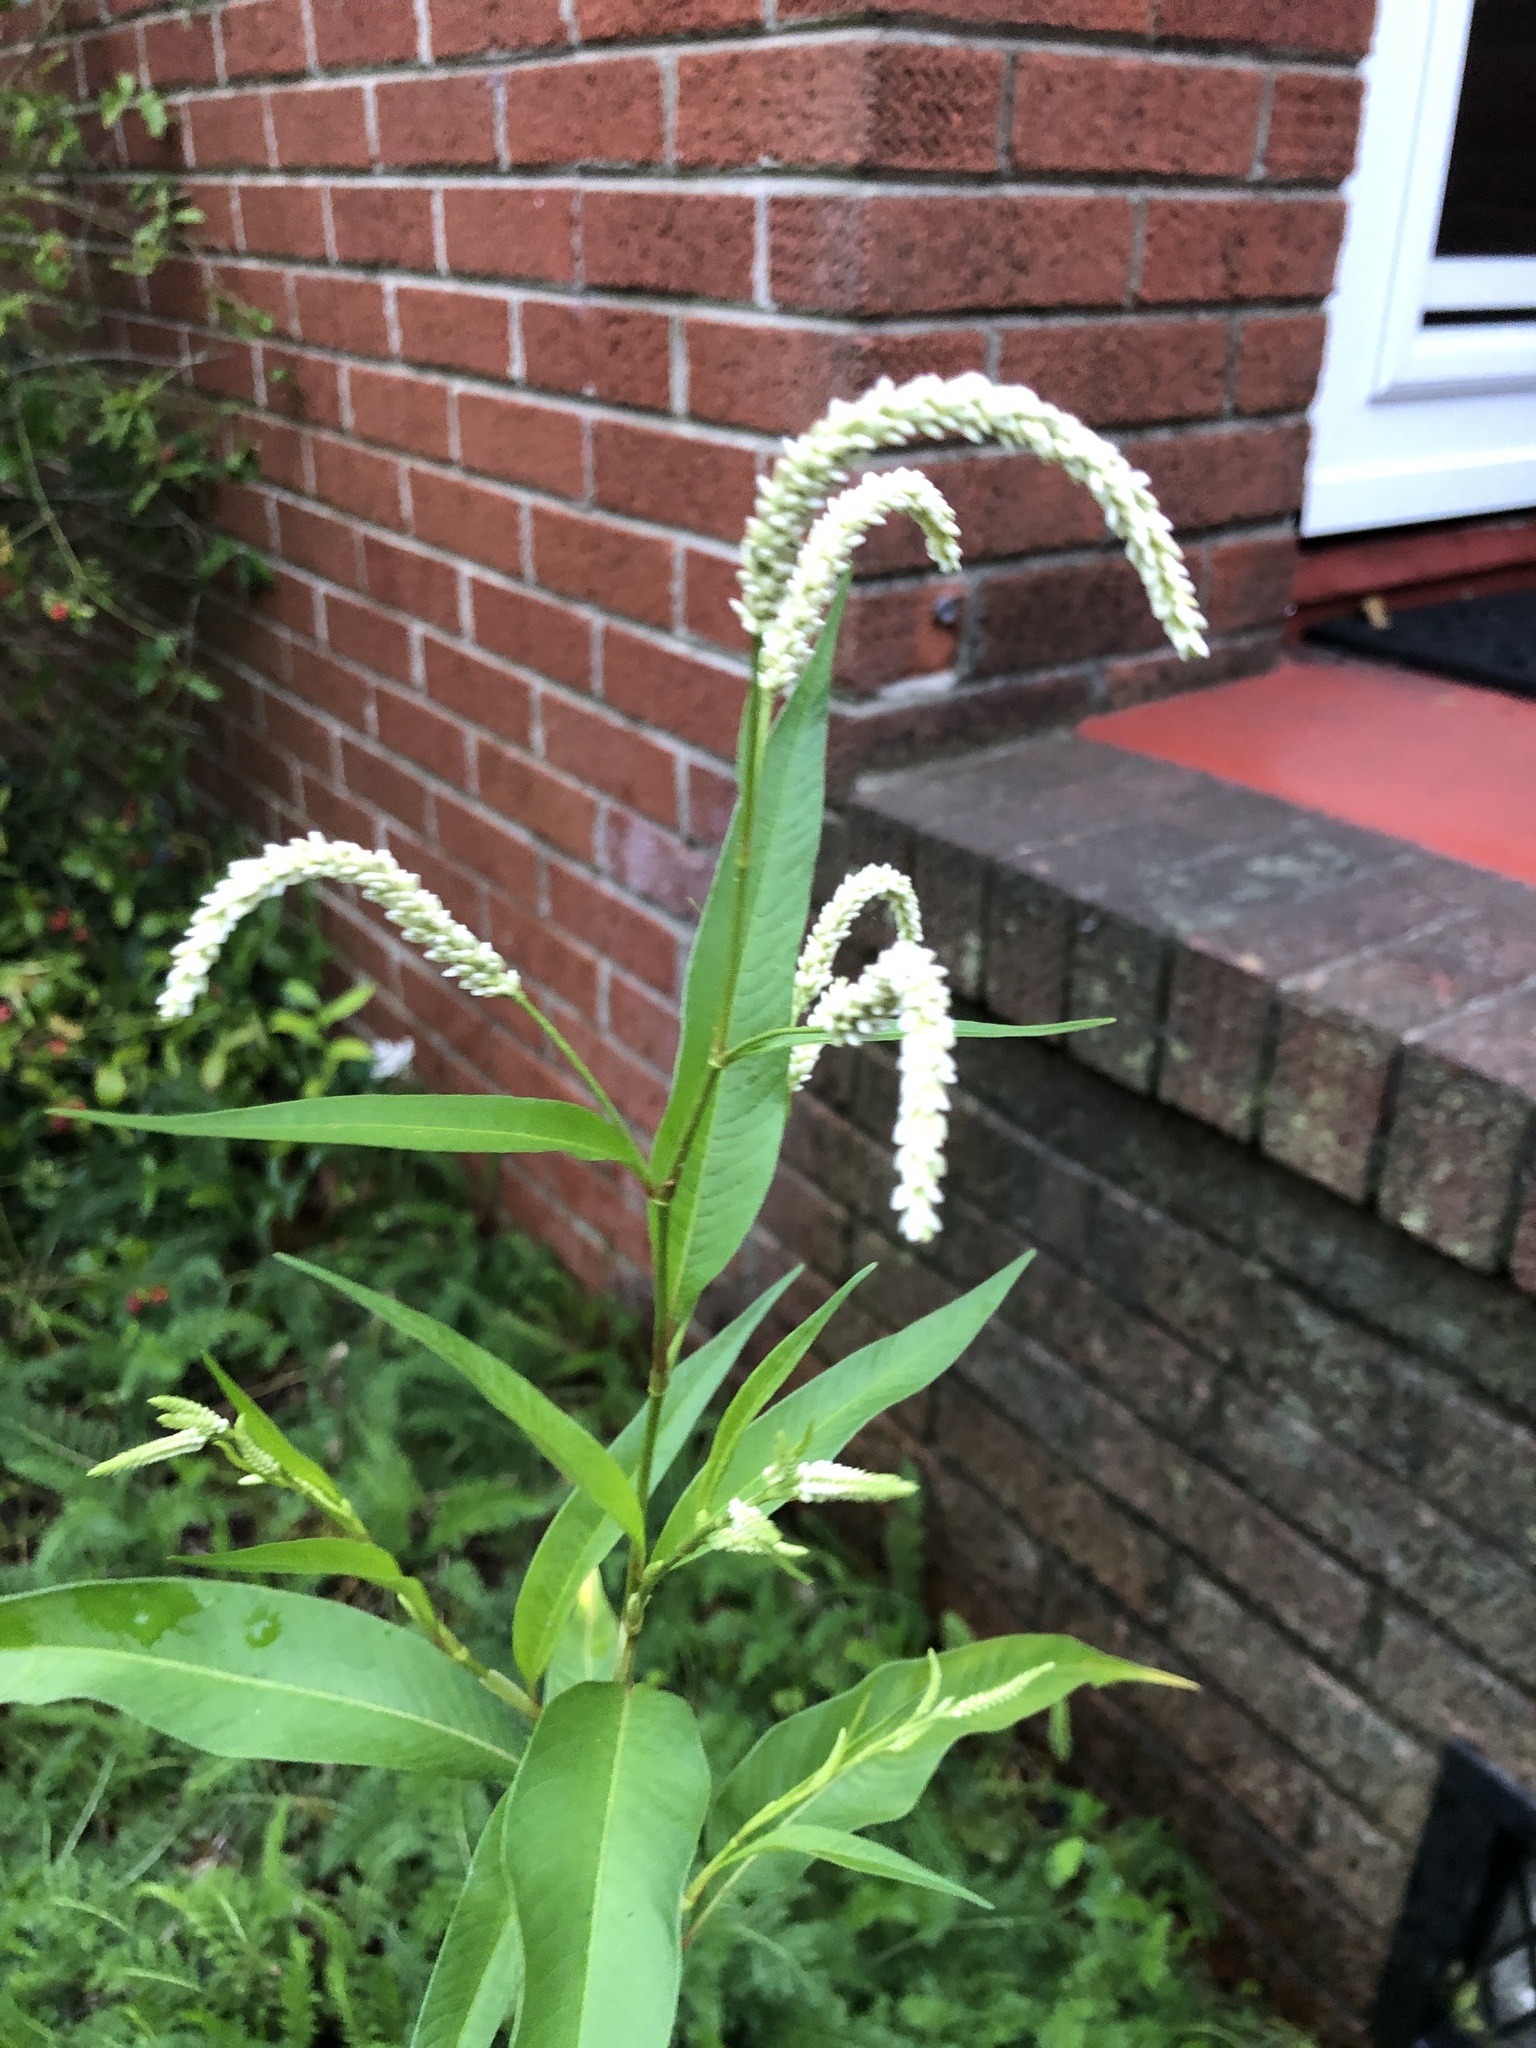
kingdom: Plantae
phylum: Tracheophyta
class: Magnoliopsida
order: Caryophyllales
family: Polygonaceae
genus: Persicaria
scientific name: Persicaria lapathifolia
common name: Curlytop knotweed
